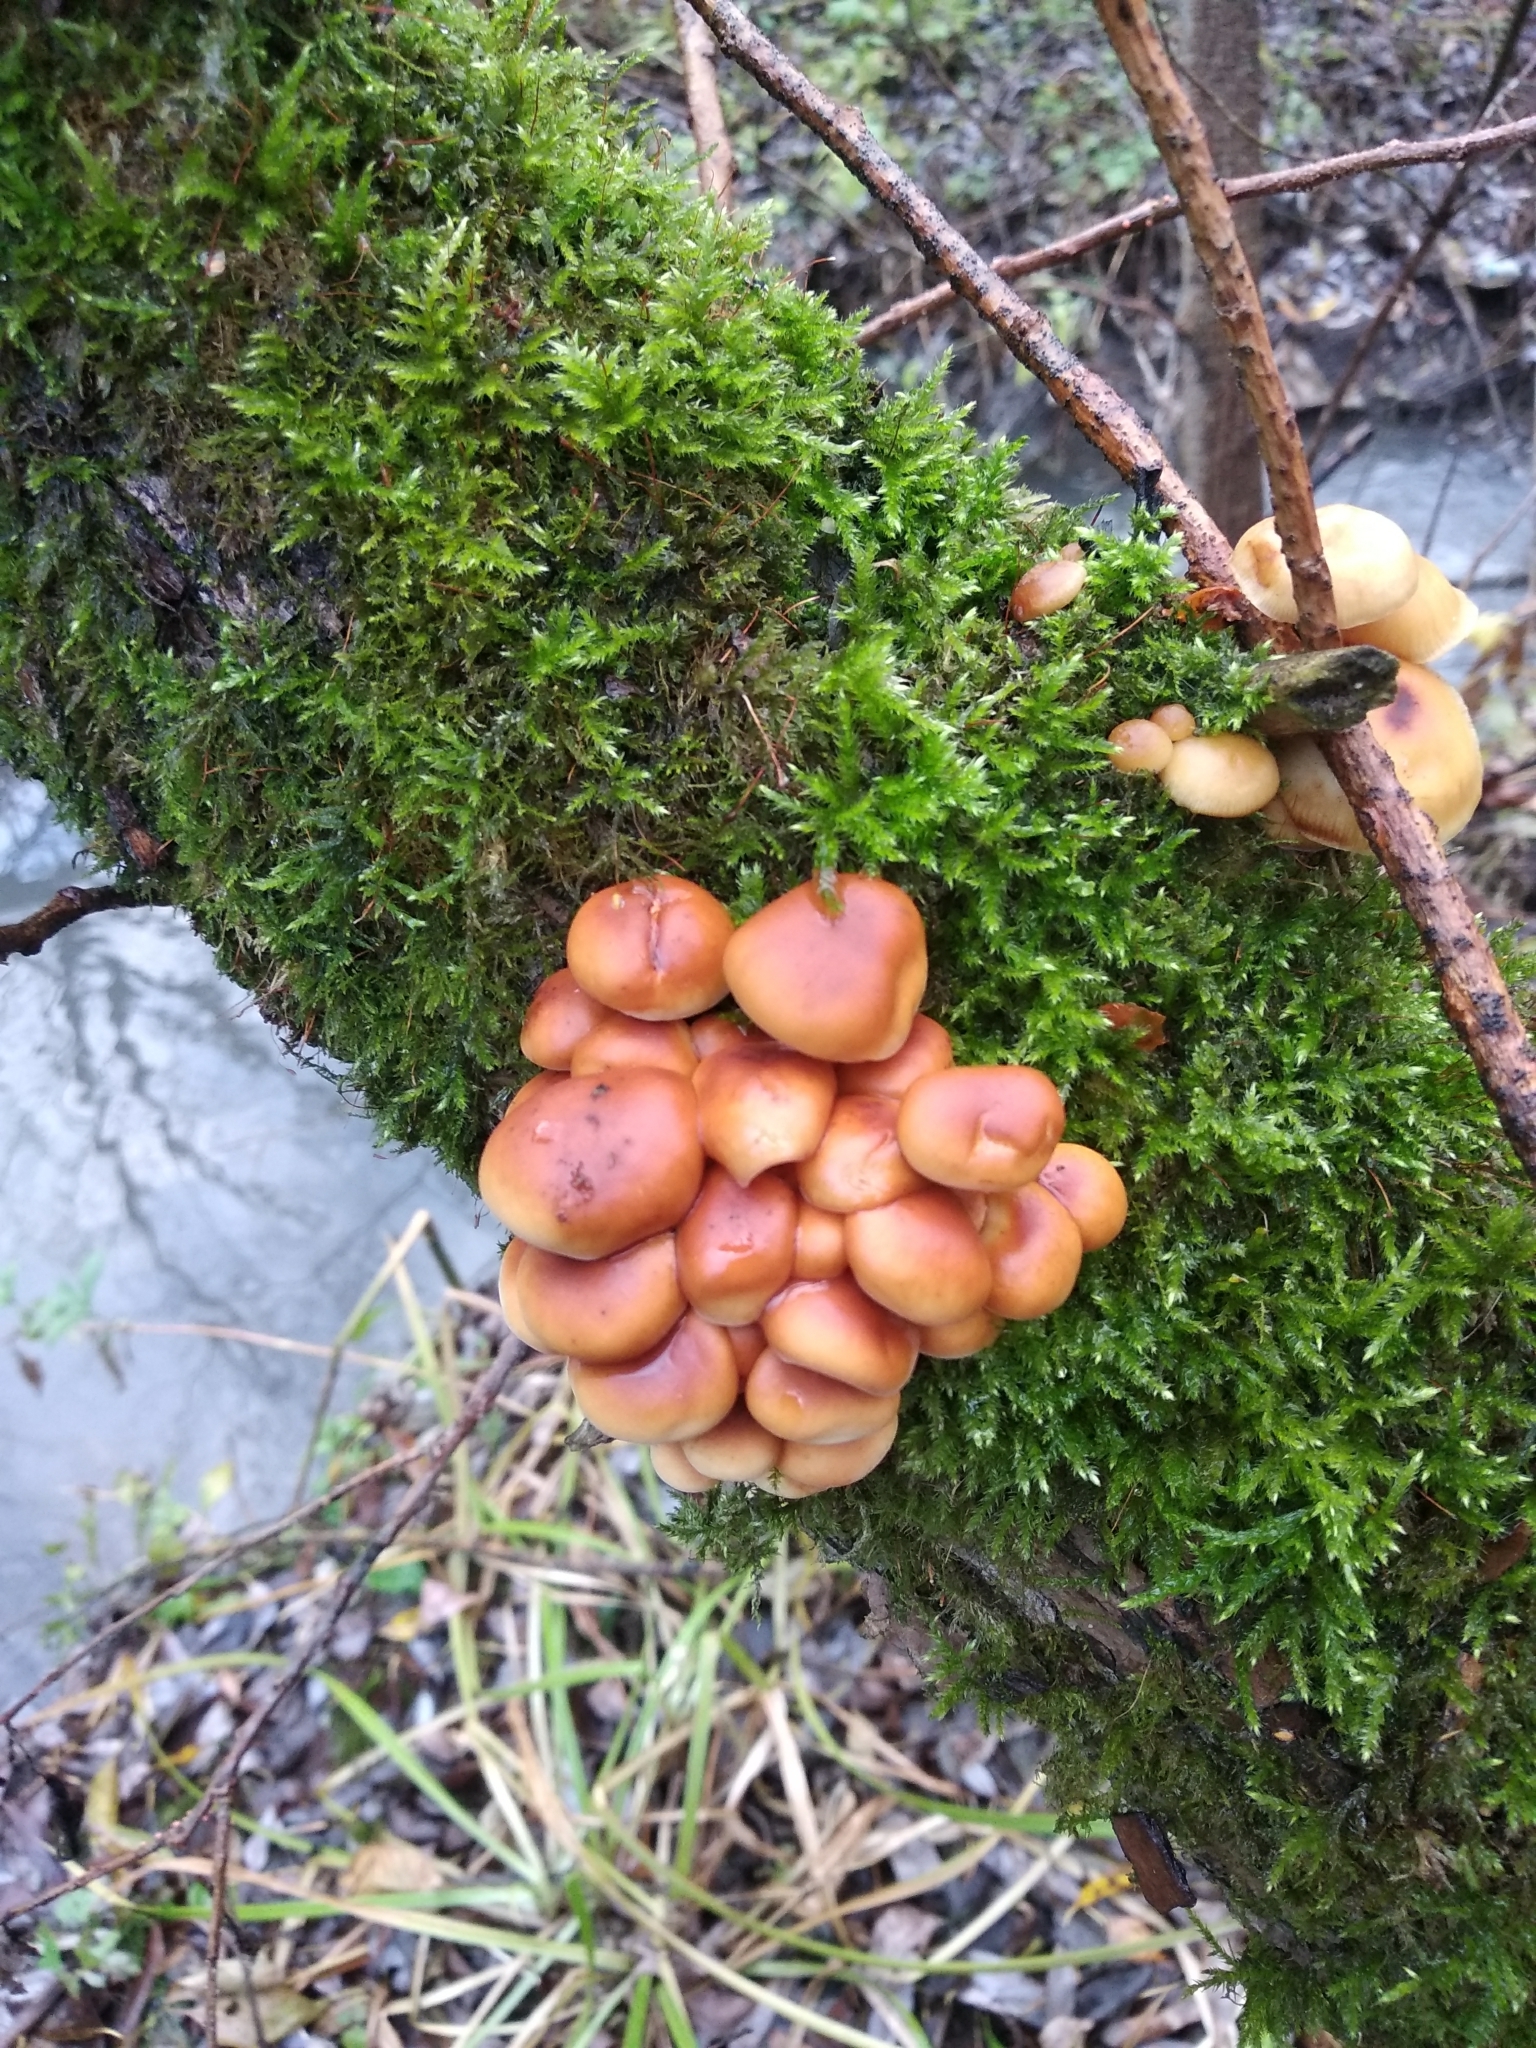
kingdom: Fungi
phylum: Basidiomycota
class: Agaricomycetes
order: Agaricales
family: Physalacriaceae
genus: Flammulina
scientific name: Flammulina
